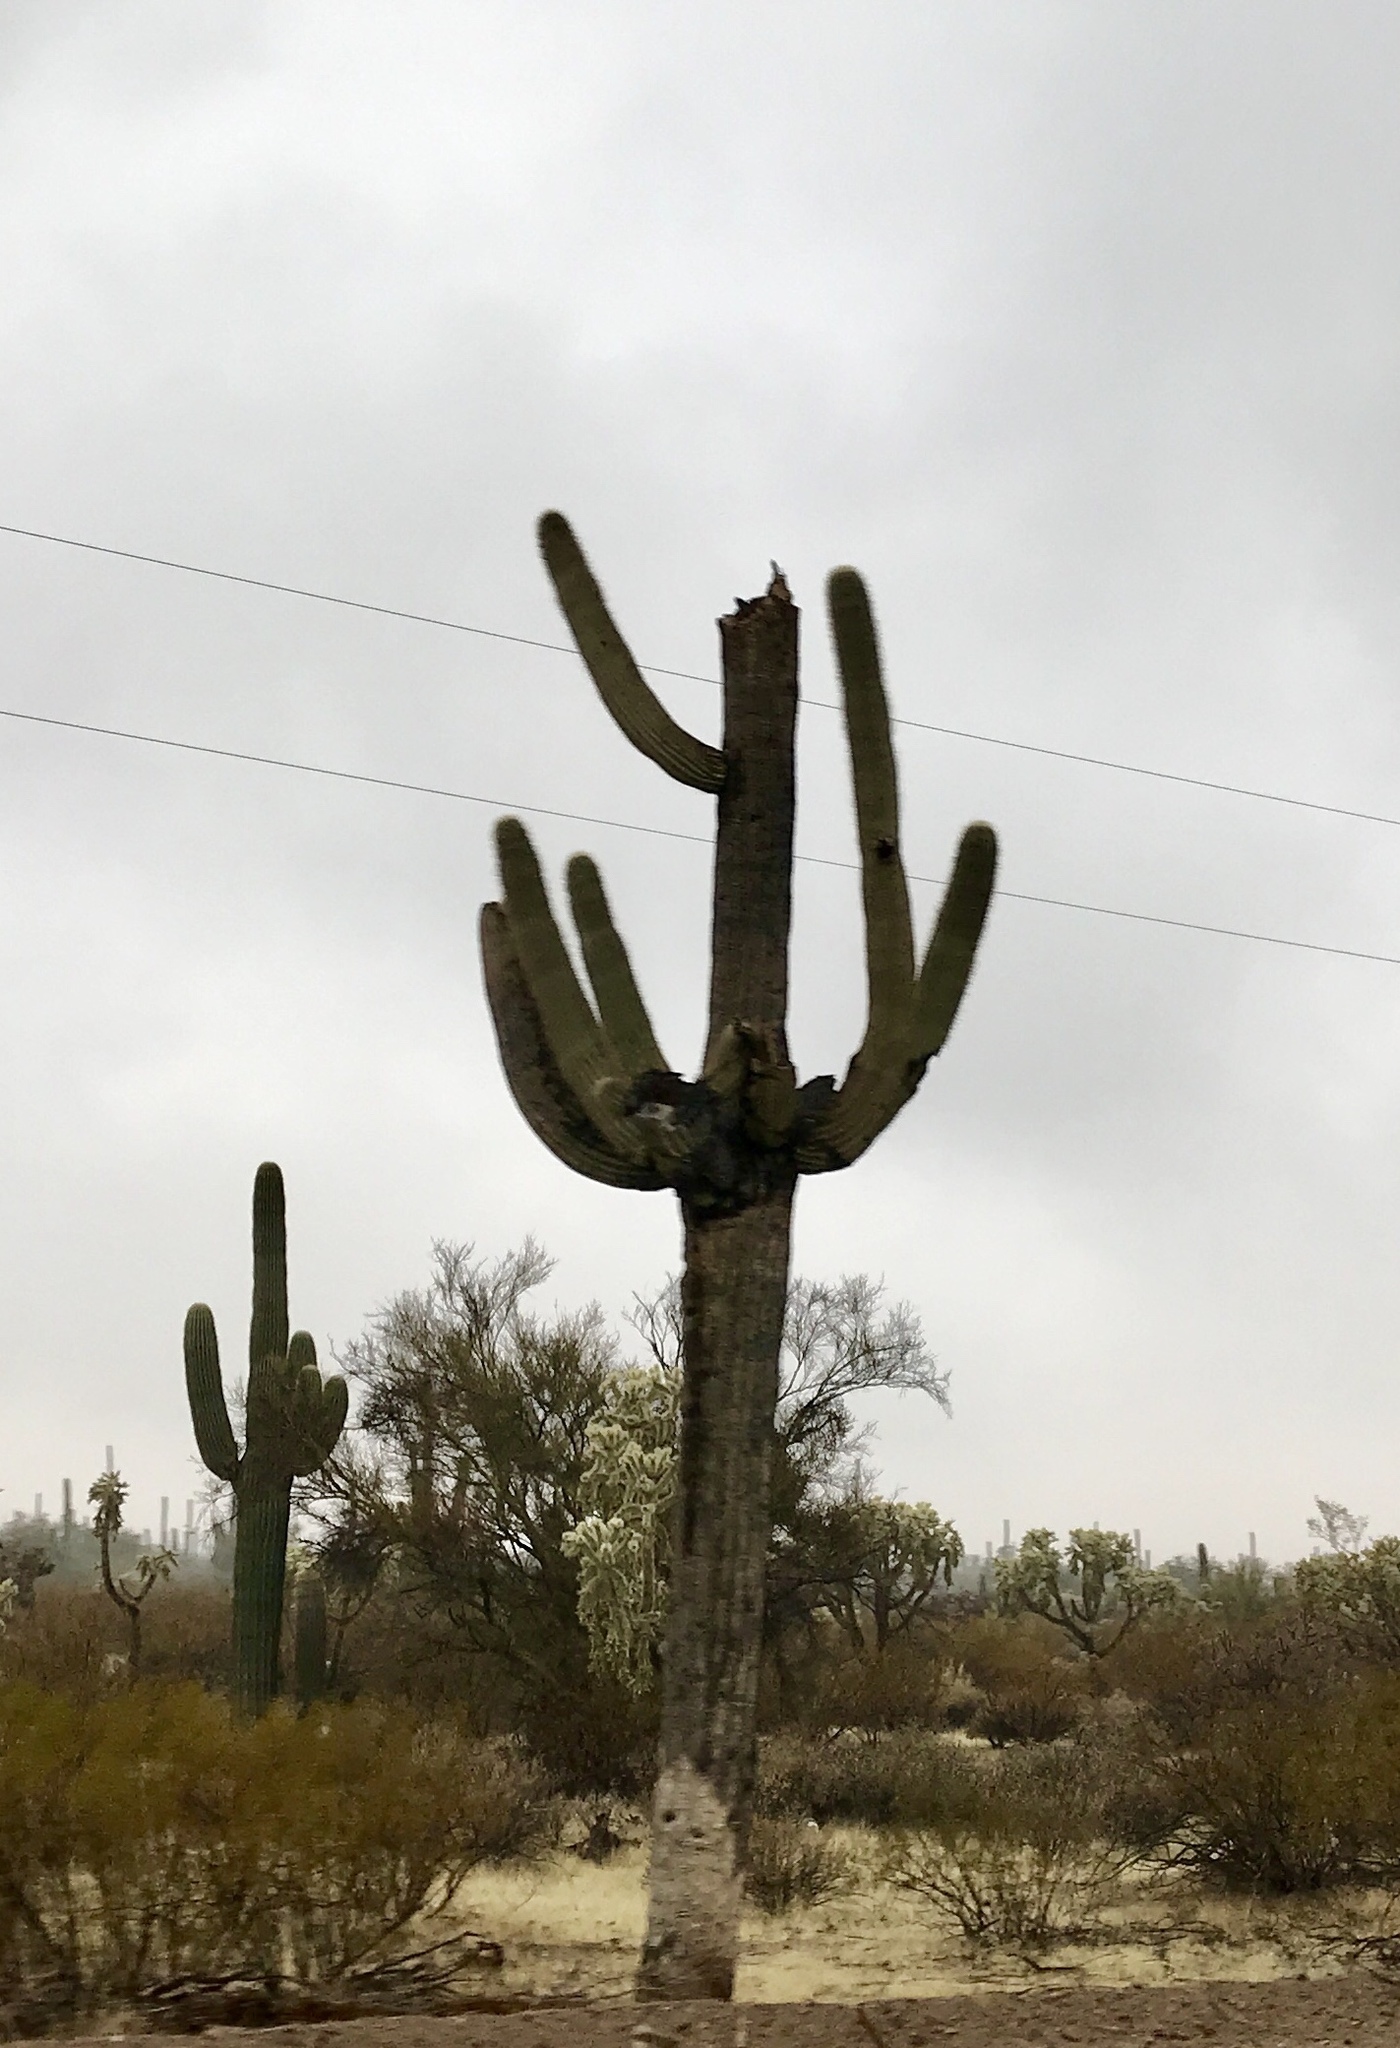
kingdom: Plantae
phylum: Tracheophyta
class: Magnoliopsida
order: Caryophyllales
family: Cactaceae
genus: Carnegiea
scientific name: Carnegiea gigantea
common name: Saguaro
